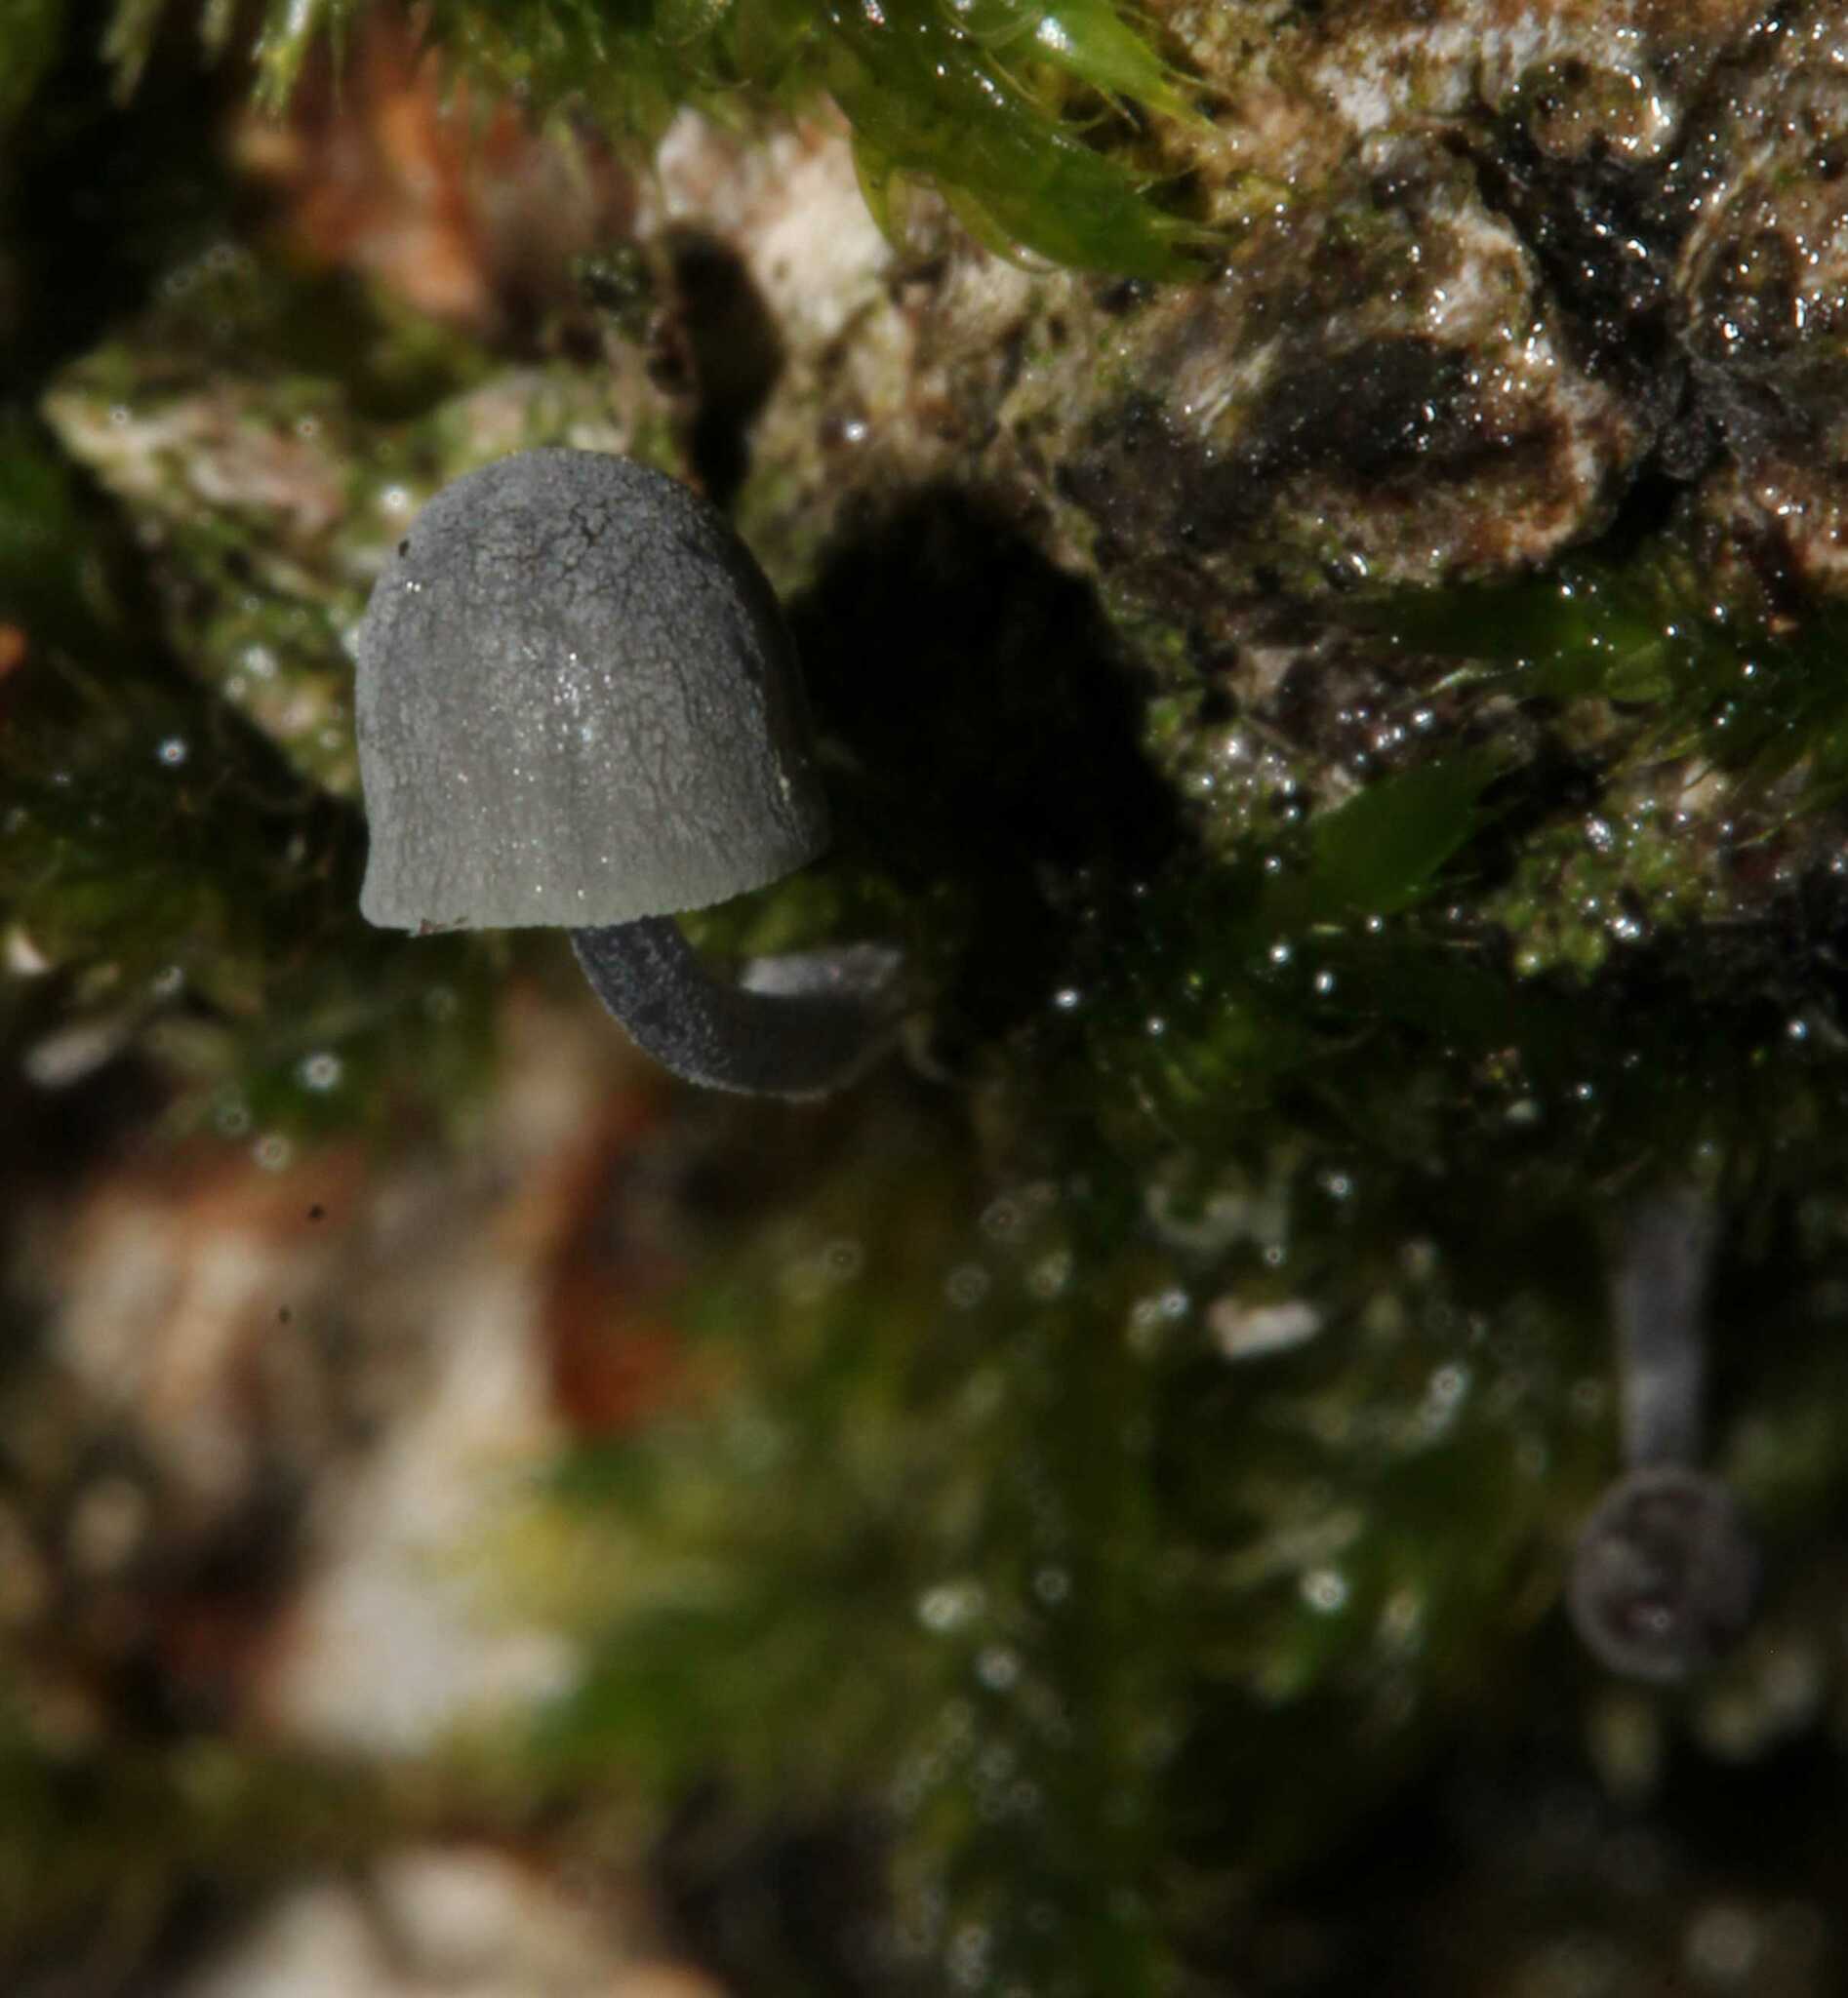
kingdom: Fungi
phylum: Basidiomycota
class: Agaricomycetes
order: Agaricales
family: Mycenaceae
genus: Mycena
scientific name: Mycena pseudocorticola
